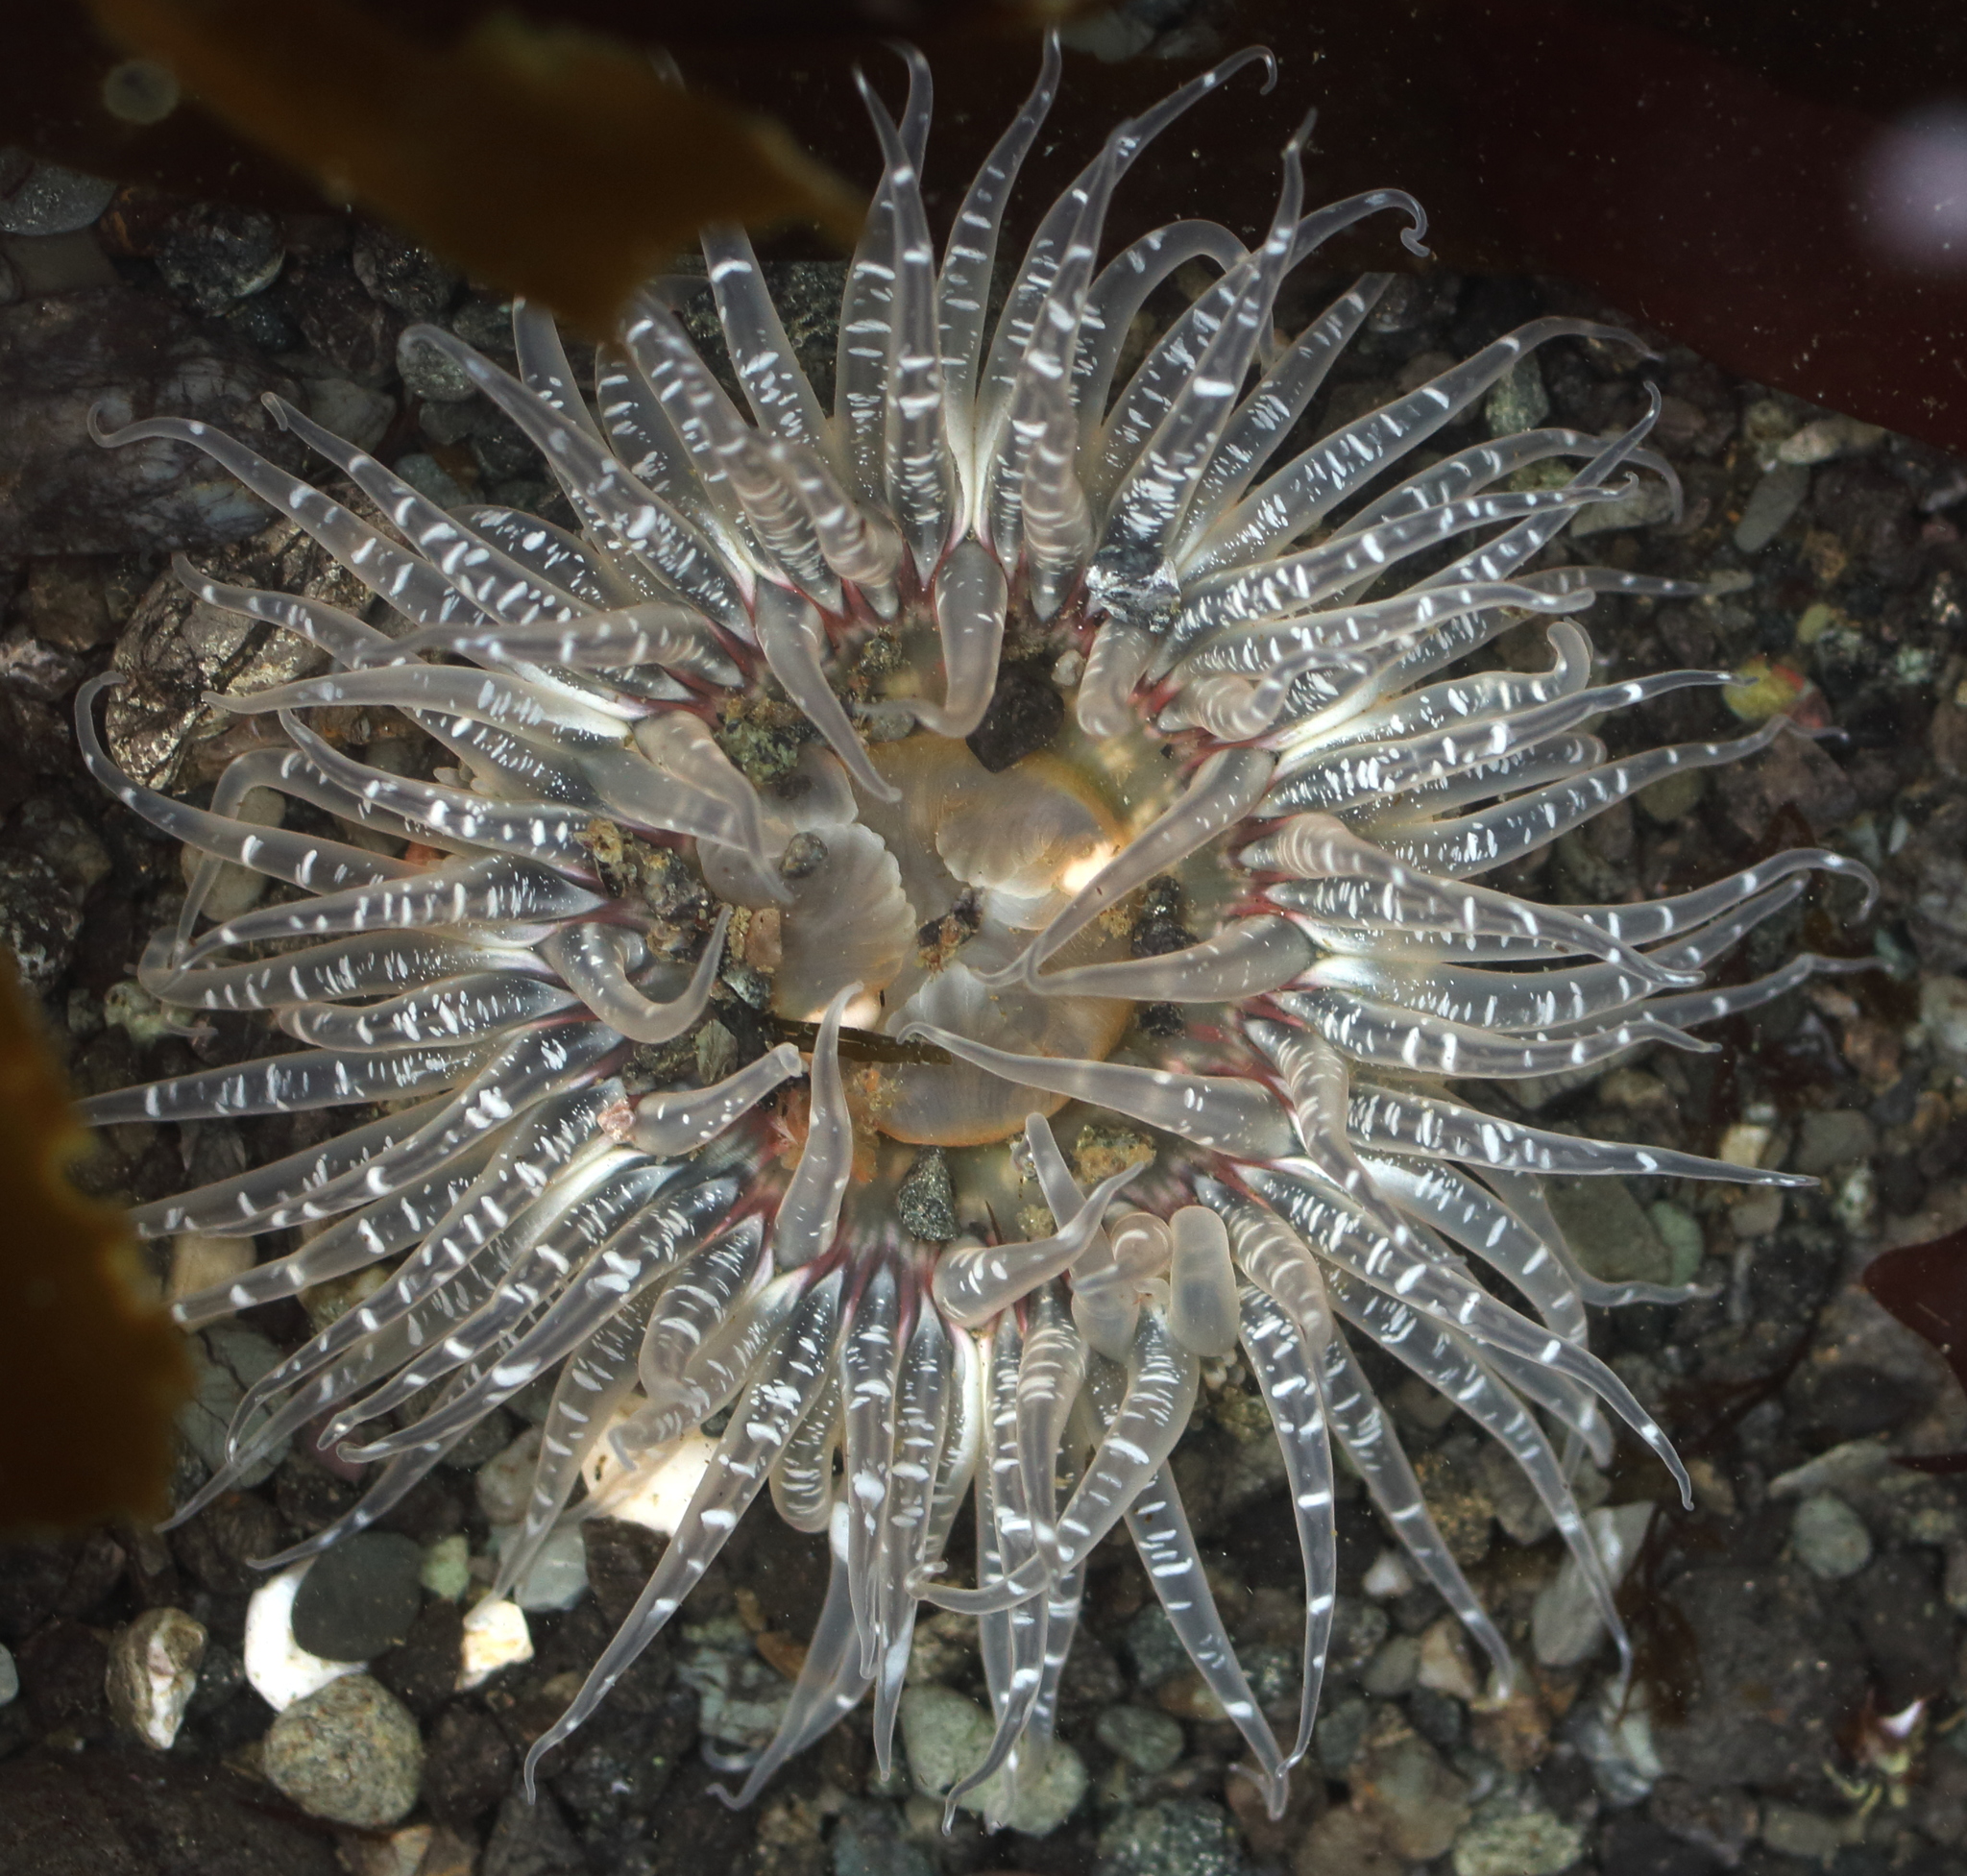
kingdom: Animalia
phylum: Cnidaria
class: Anthozoa
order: Actiniaria
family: Actiniidae
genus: Anthopleura
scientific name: Anthopleura artemisia
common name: Buried sea anemone
